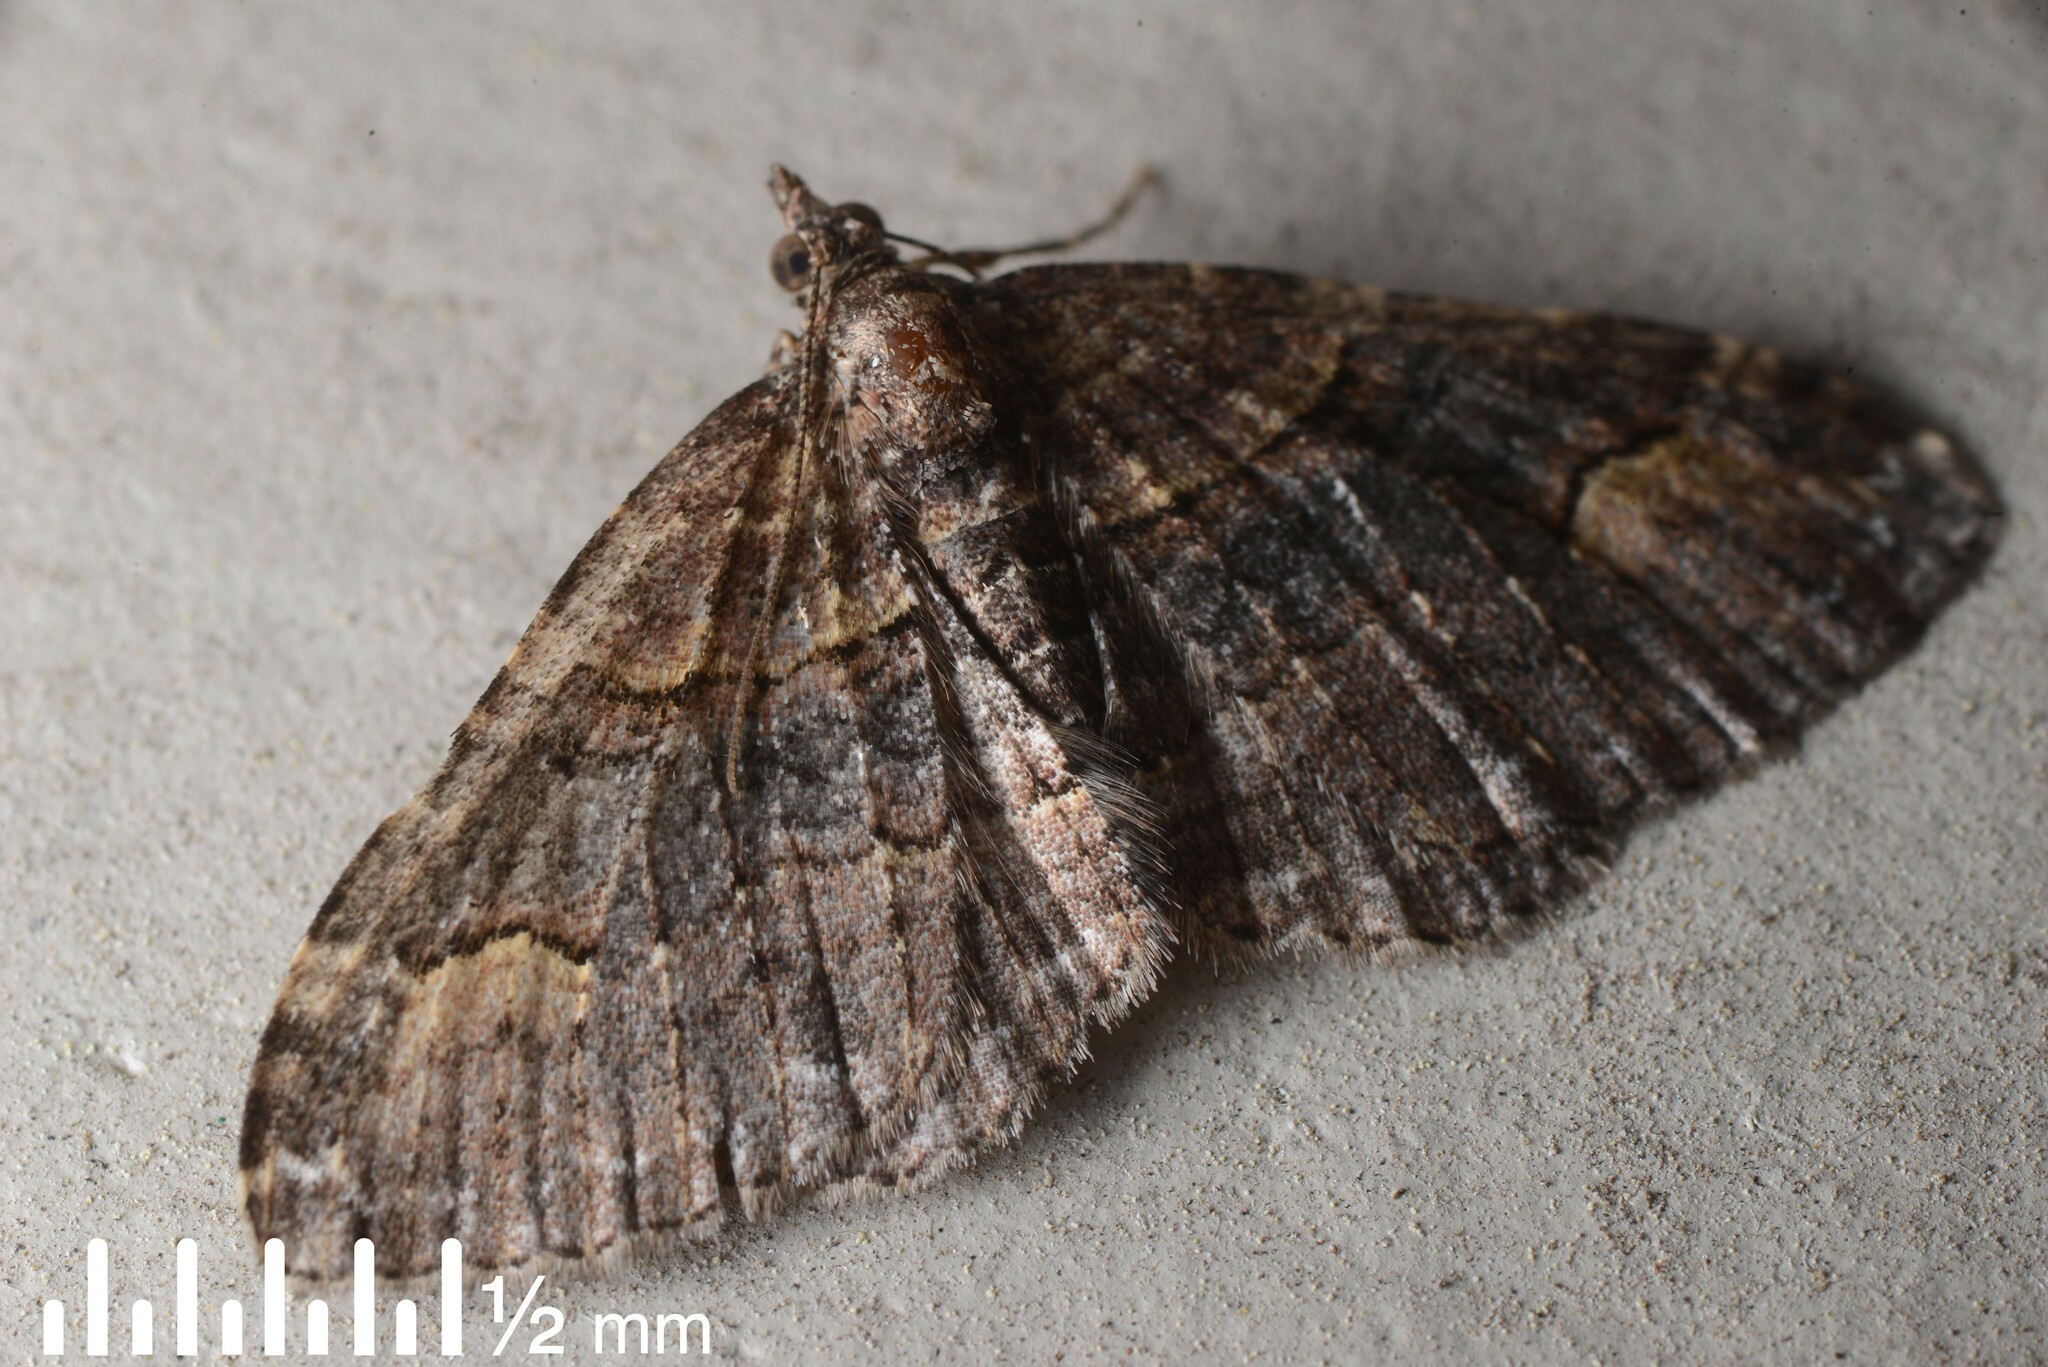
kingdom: Animalia
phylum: Arthropoda
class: Insecta
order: Lepidoptera
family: Geometridae
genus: Epyaxa
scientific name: Epyaxa lucidata
